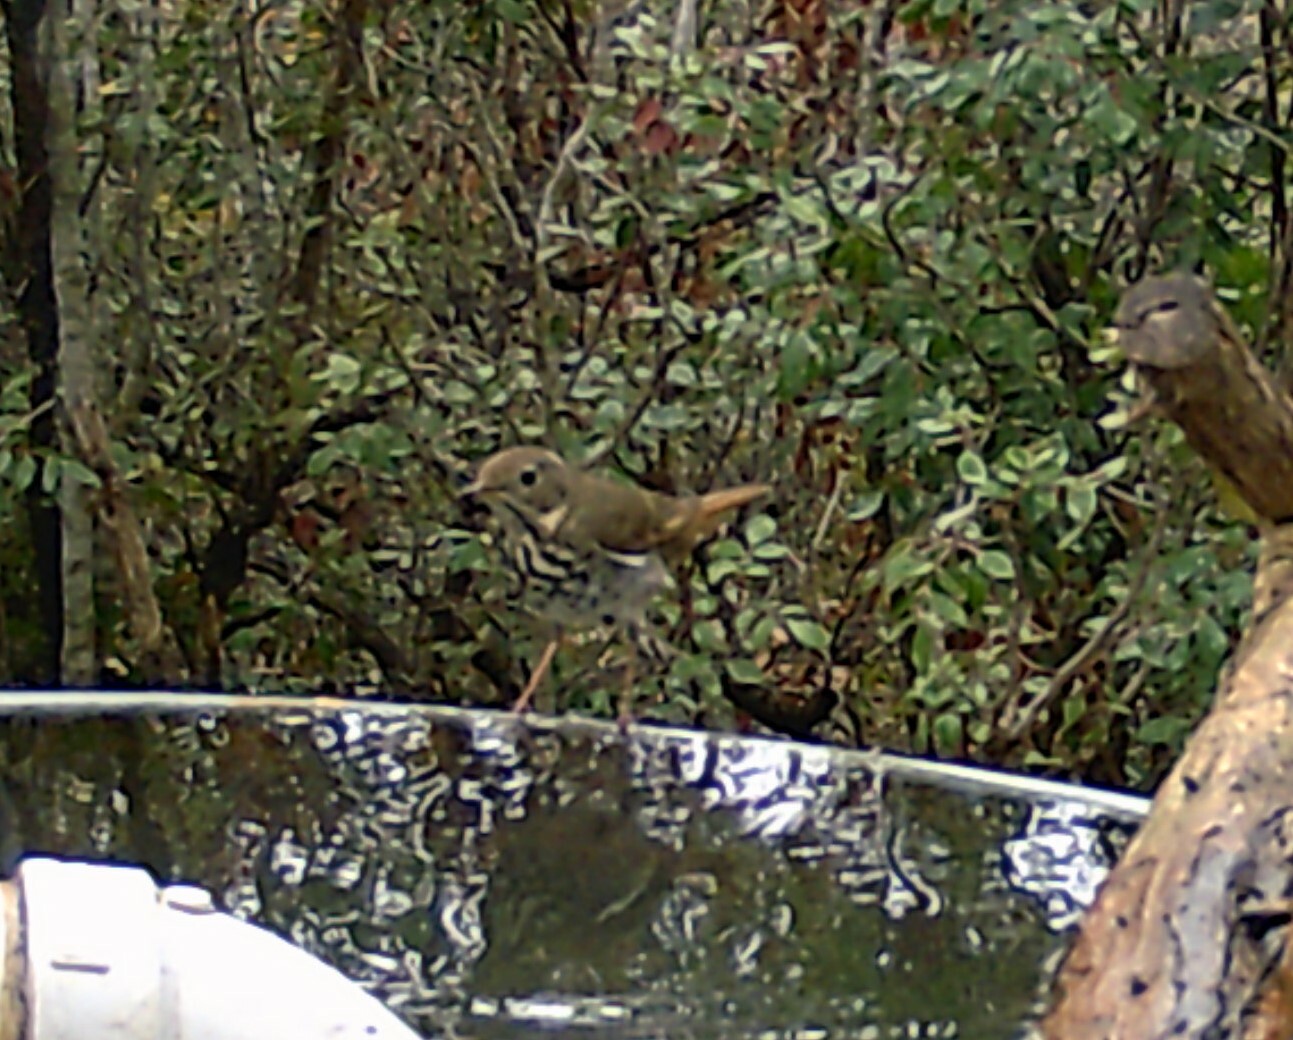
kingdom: Animalia
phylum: Chordata
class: Aves
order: Passeriformes
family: Turdidae
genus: Catharus
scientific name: Catharus guttatus
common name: Hermit thrush
